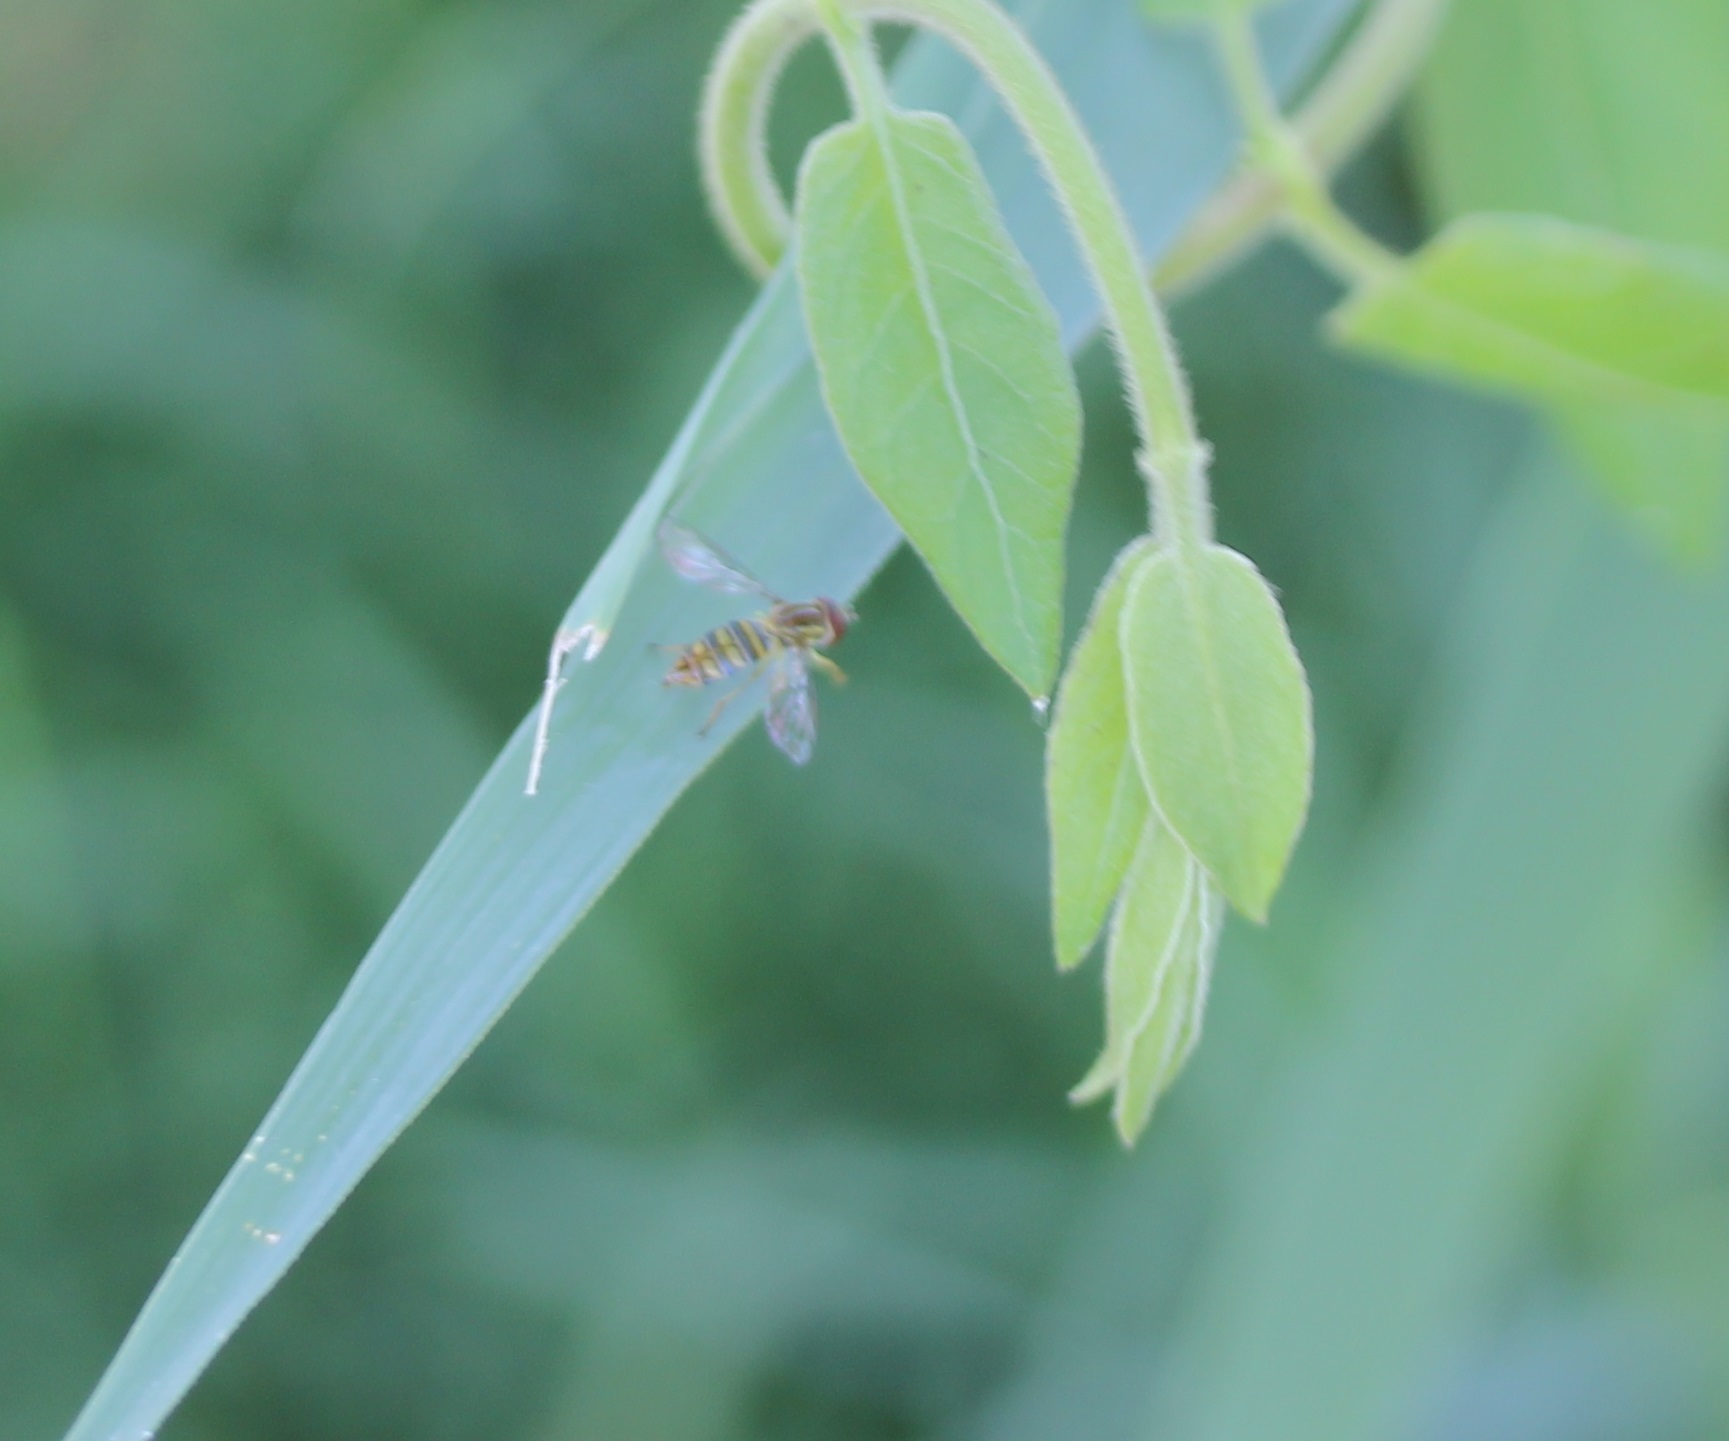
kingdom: Animalia
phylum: Arthropoda
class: Insecta
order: Diptera
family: Syrphidae
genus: Toxomerus
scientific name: Toxomerus politus
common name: Maize calligrapher
